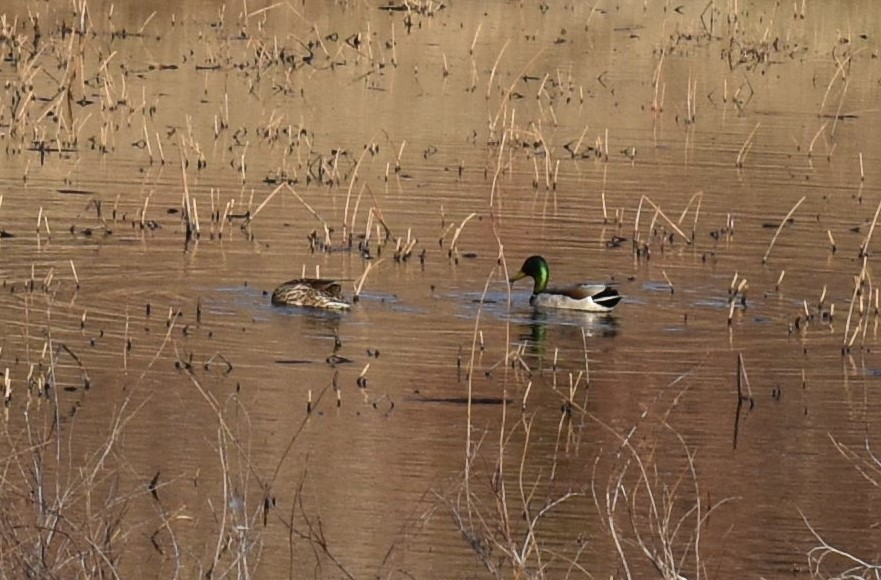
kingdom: Animalia
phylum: Chordata
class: Aves
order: Anseriformes
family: Anatidae
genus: Anas
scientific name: Anas platyrhynchos
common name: Mallard
